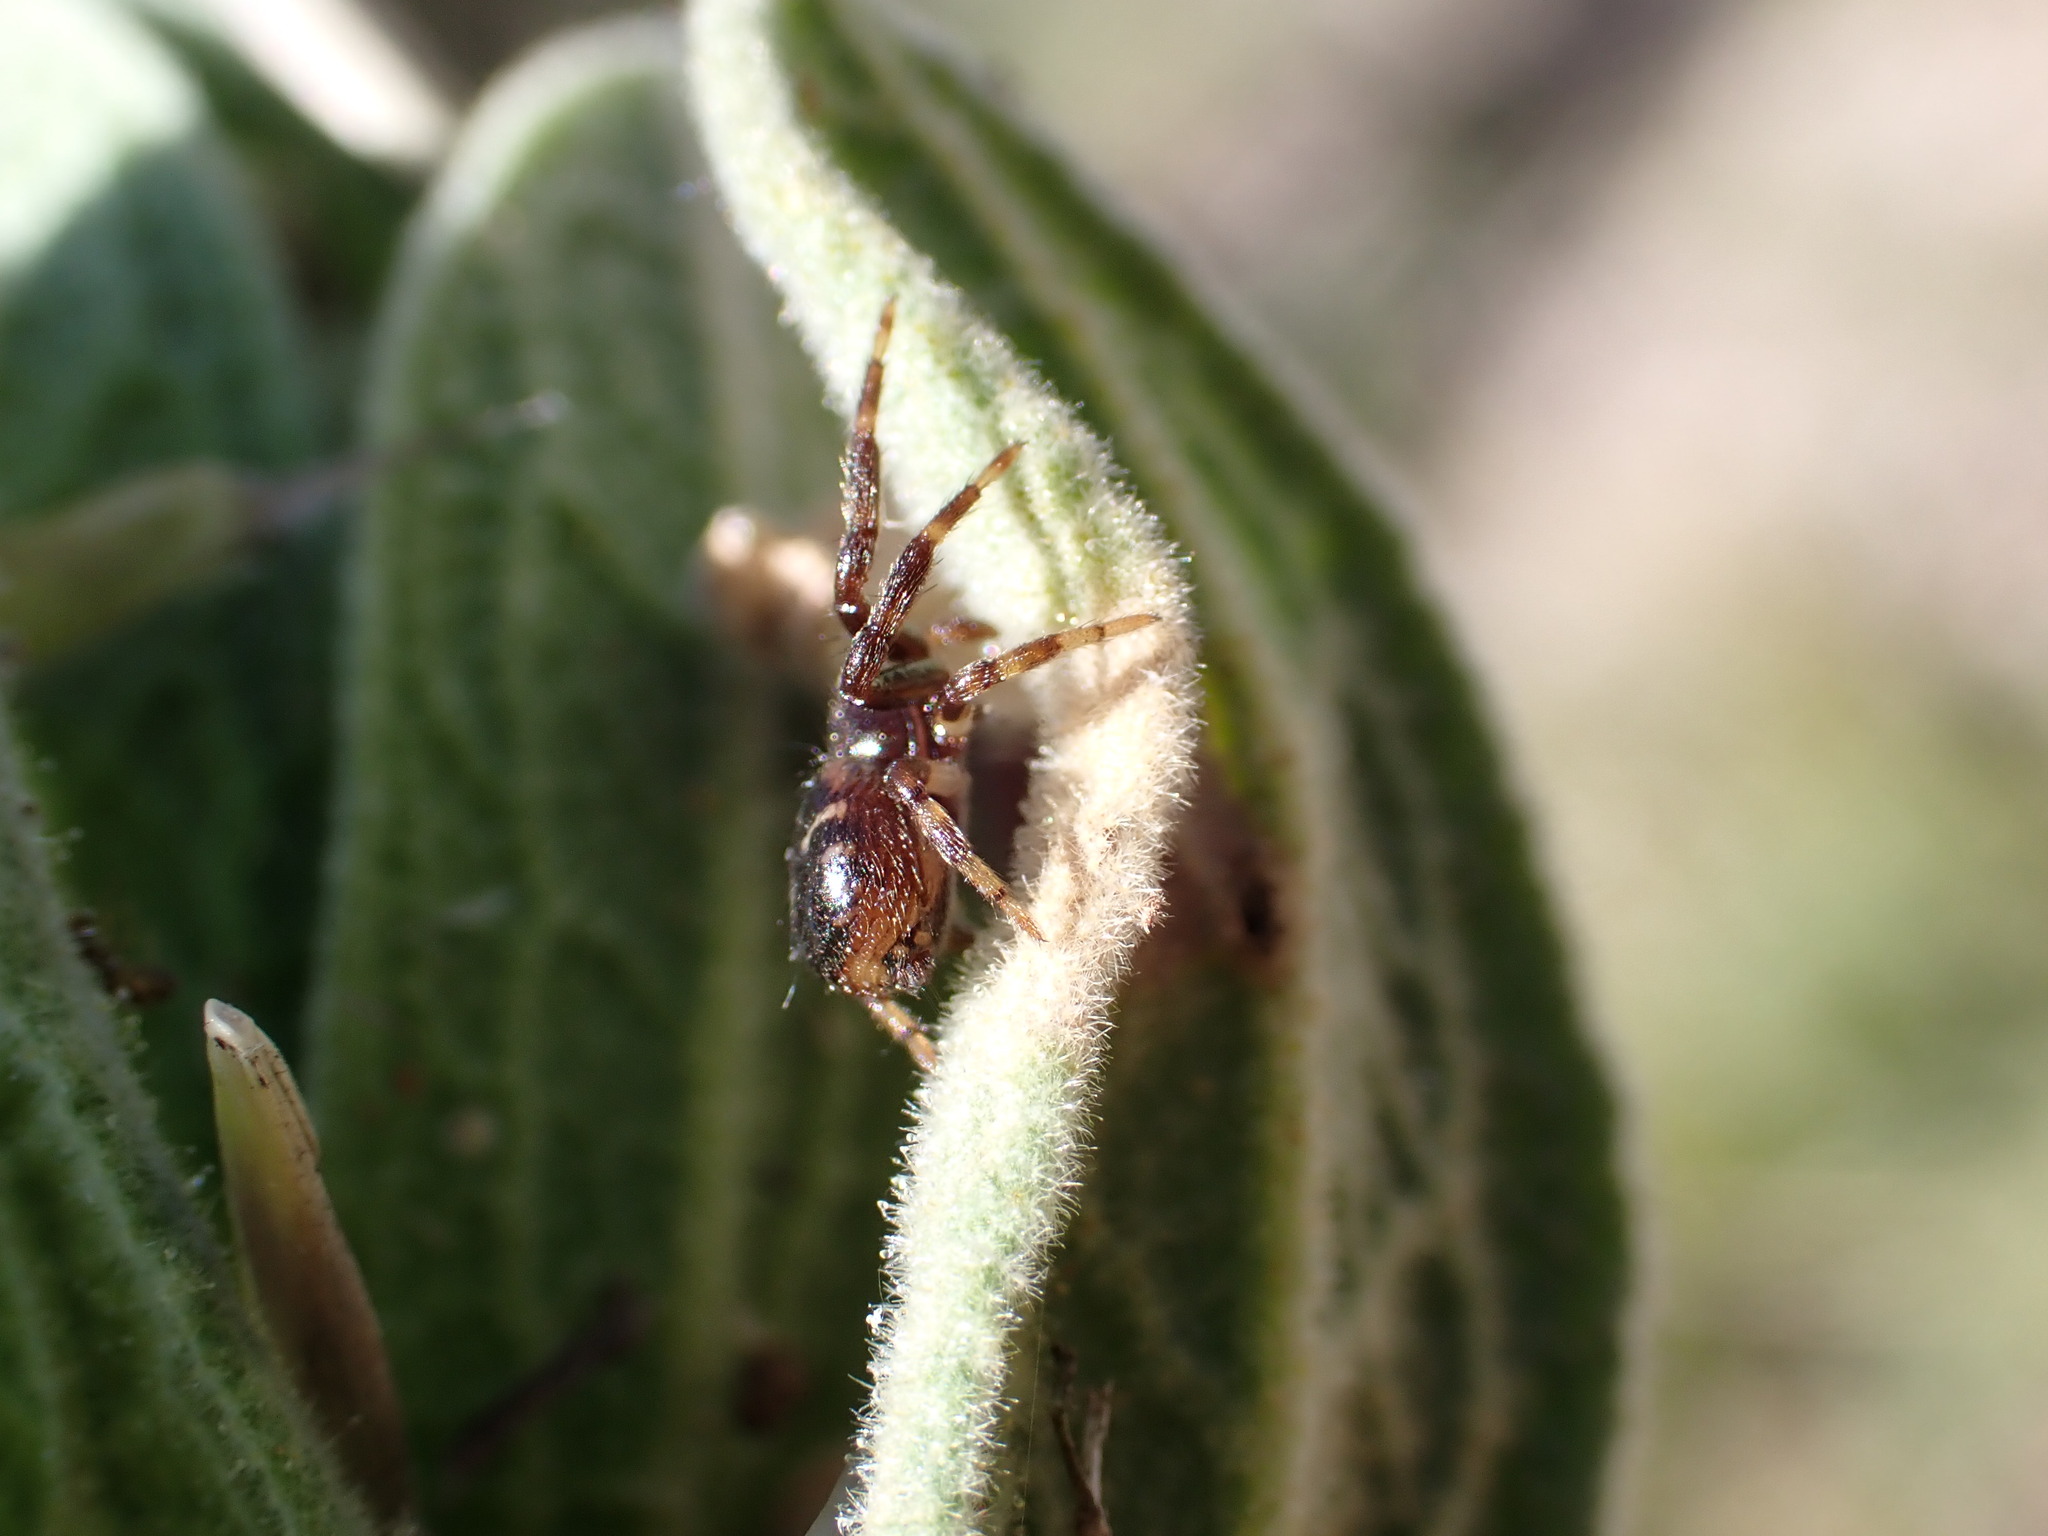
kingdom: Animalia
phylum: Arthropoda
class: Arachnida
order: Araneae
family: Thomisidae
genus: Synema
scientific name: Synema globosum
